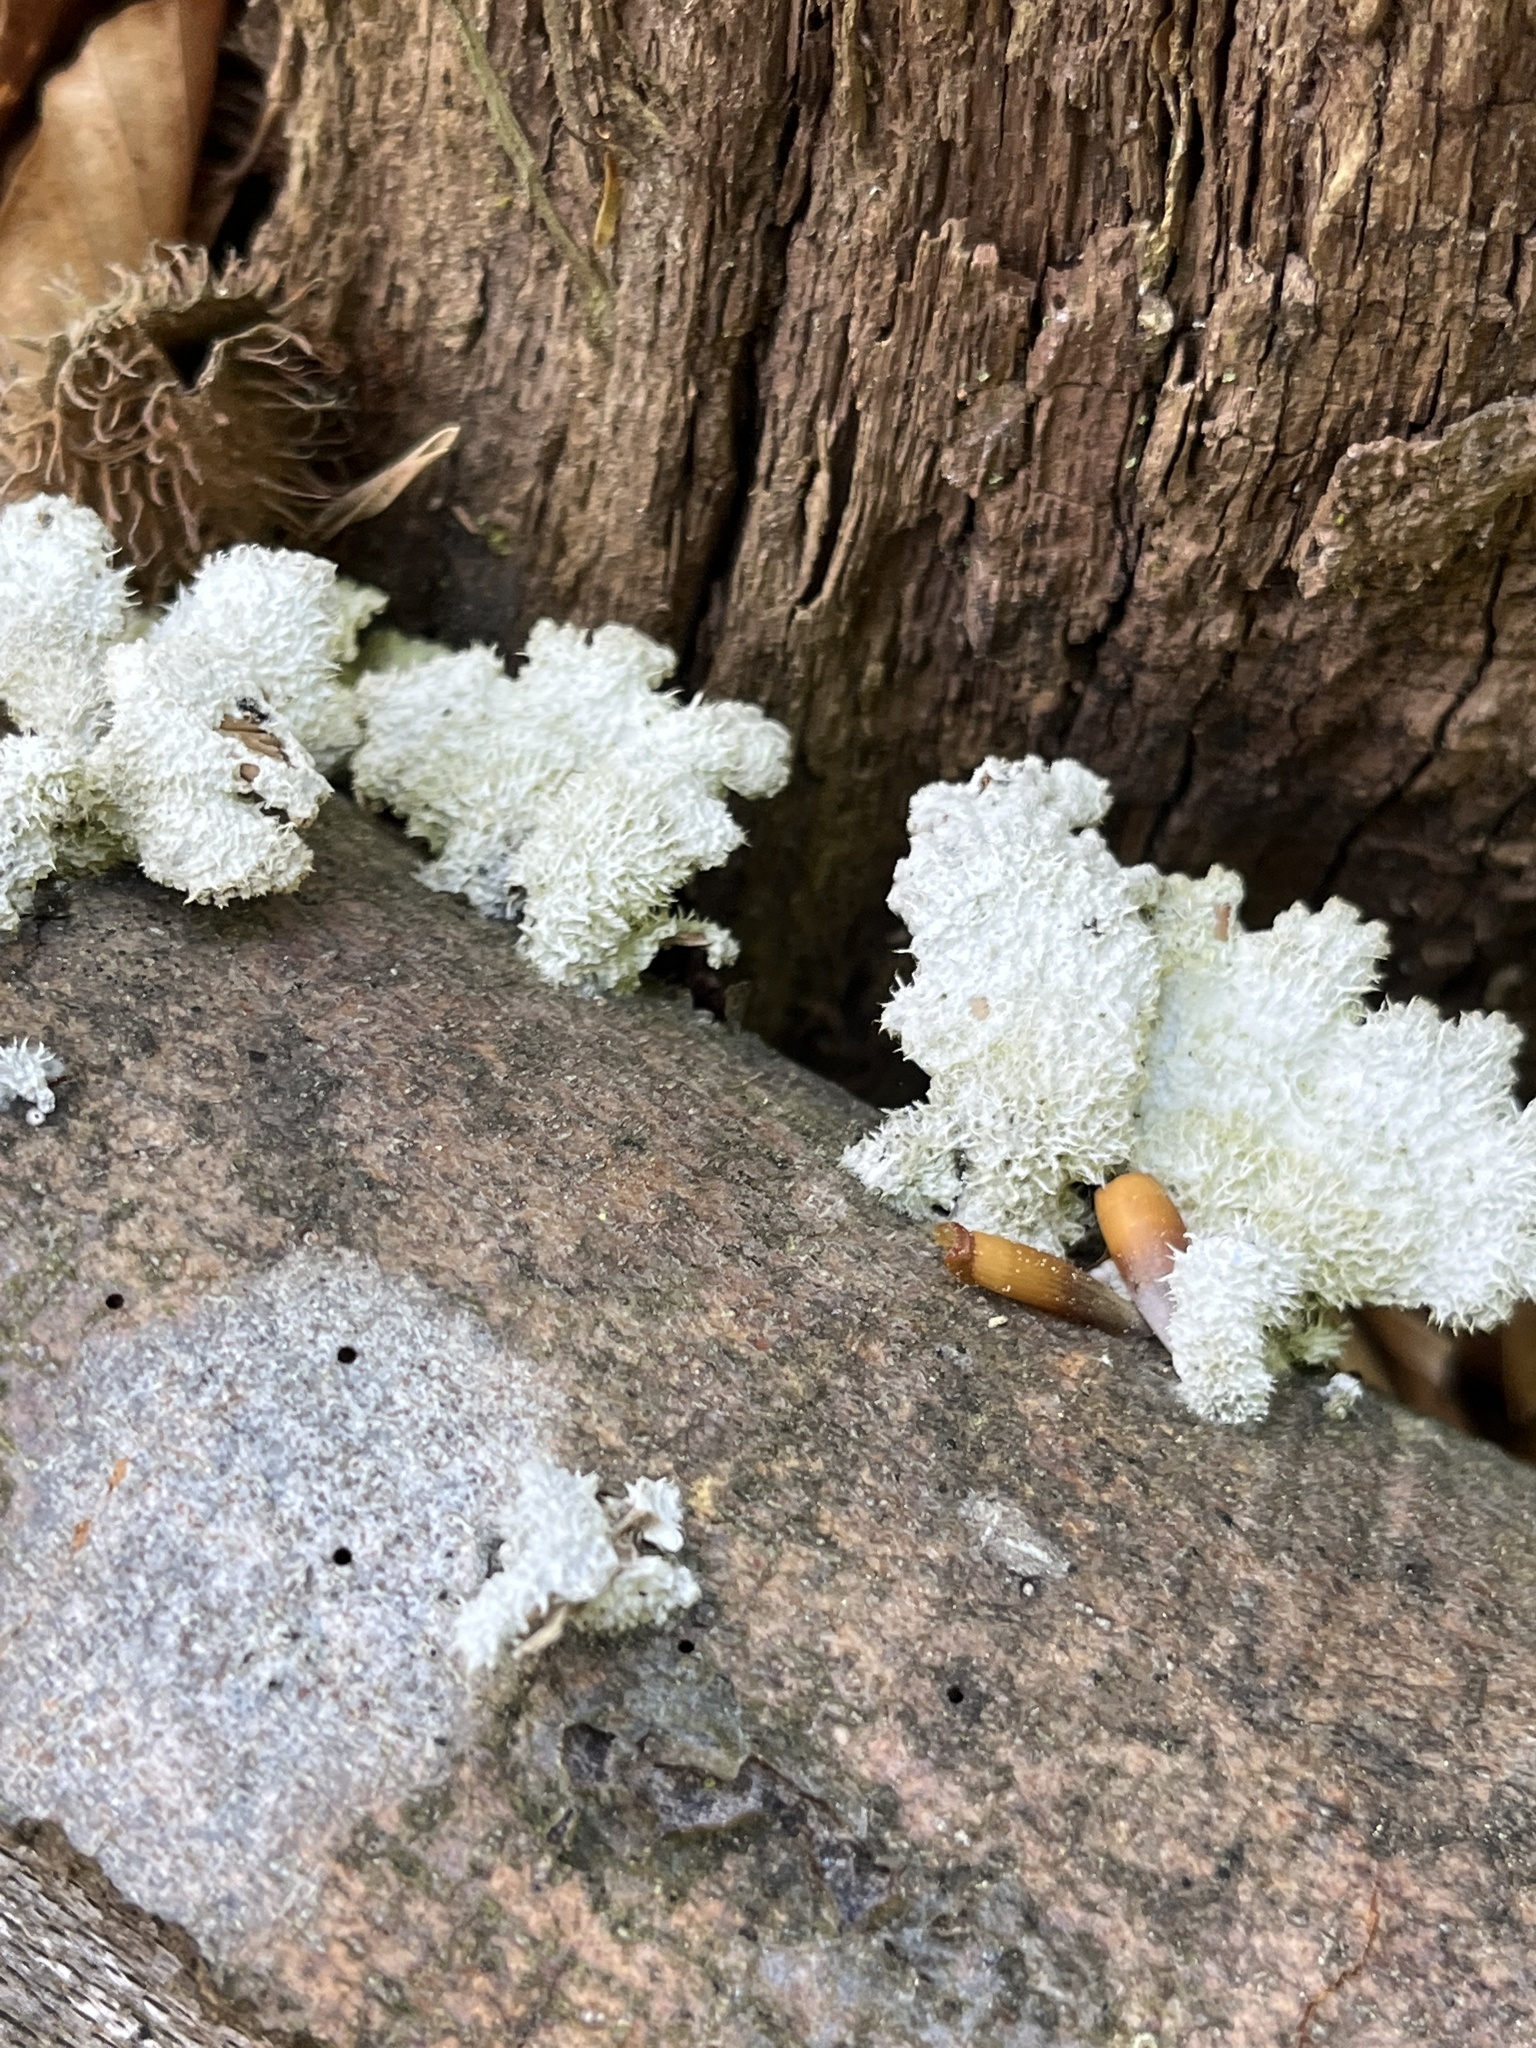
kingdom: Fungi
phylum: Basidiomycota
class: Agaricomycetes
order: Agaricales
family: Schizophyllaceae
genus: Schizophyllum
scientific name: Schizophyllum commune
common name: Common porecrust
